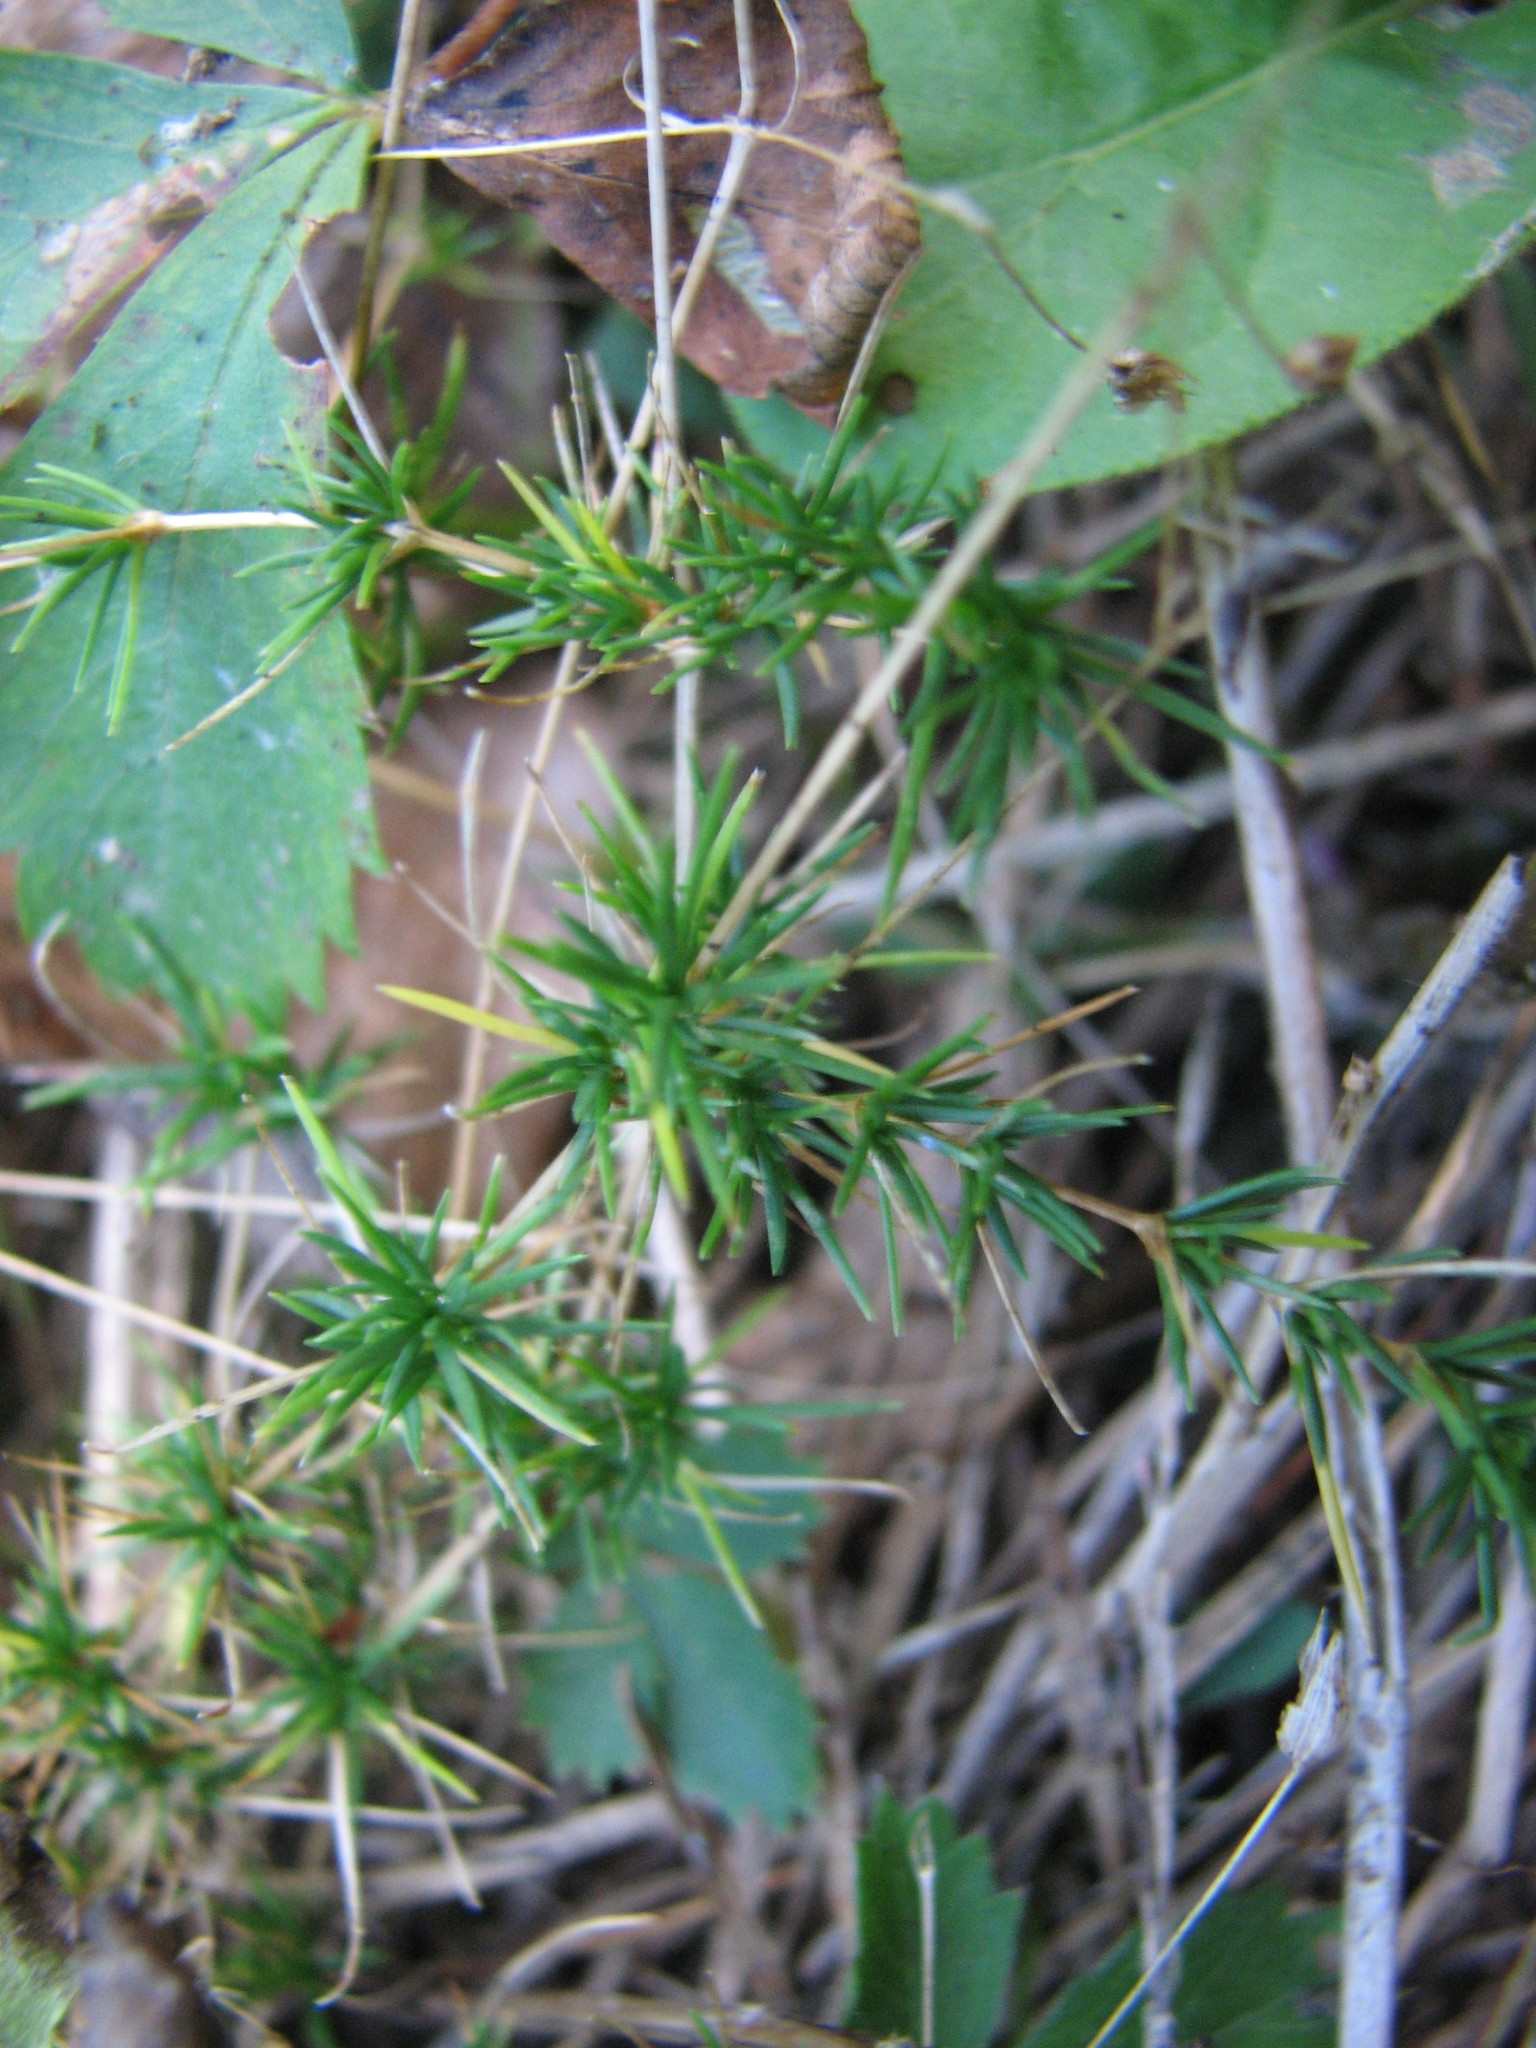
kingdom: Plantae
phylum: Tracheophyta
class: Magnoliopsida
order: Caryophyllales
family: Caryophyllaceae
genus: Sabulina
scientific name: Sabulina michauxii
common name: Michaux's stitchwort
